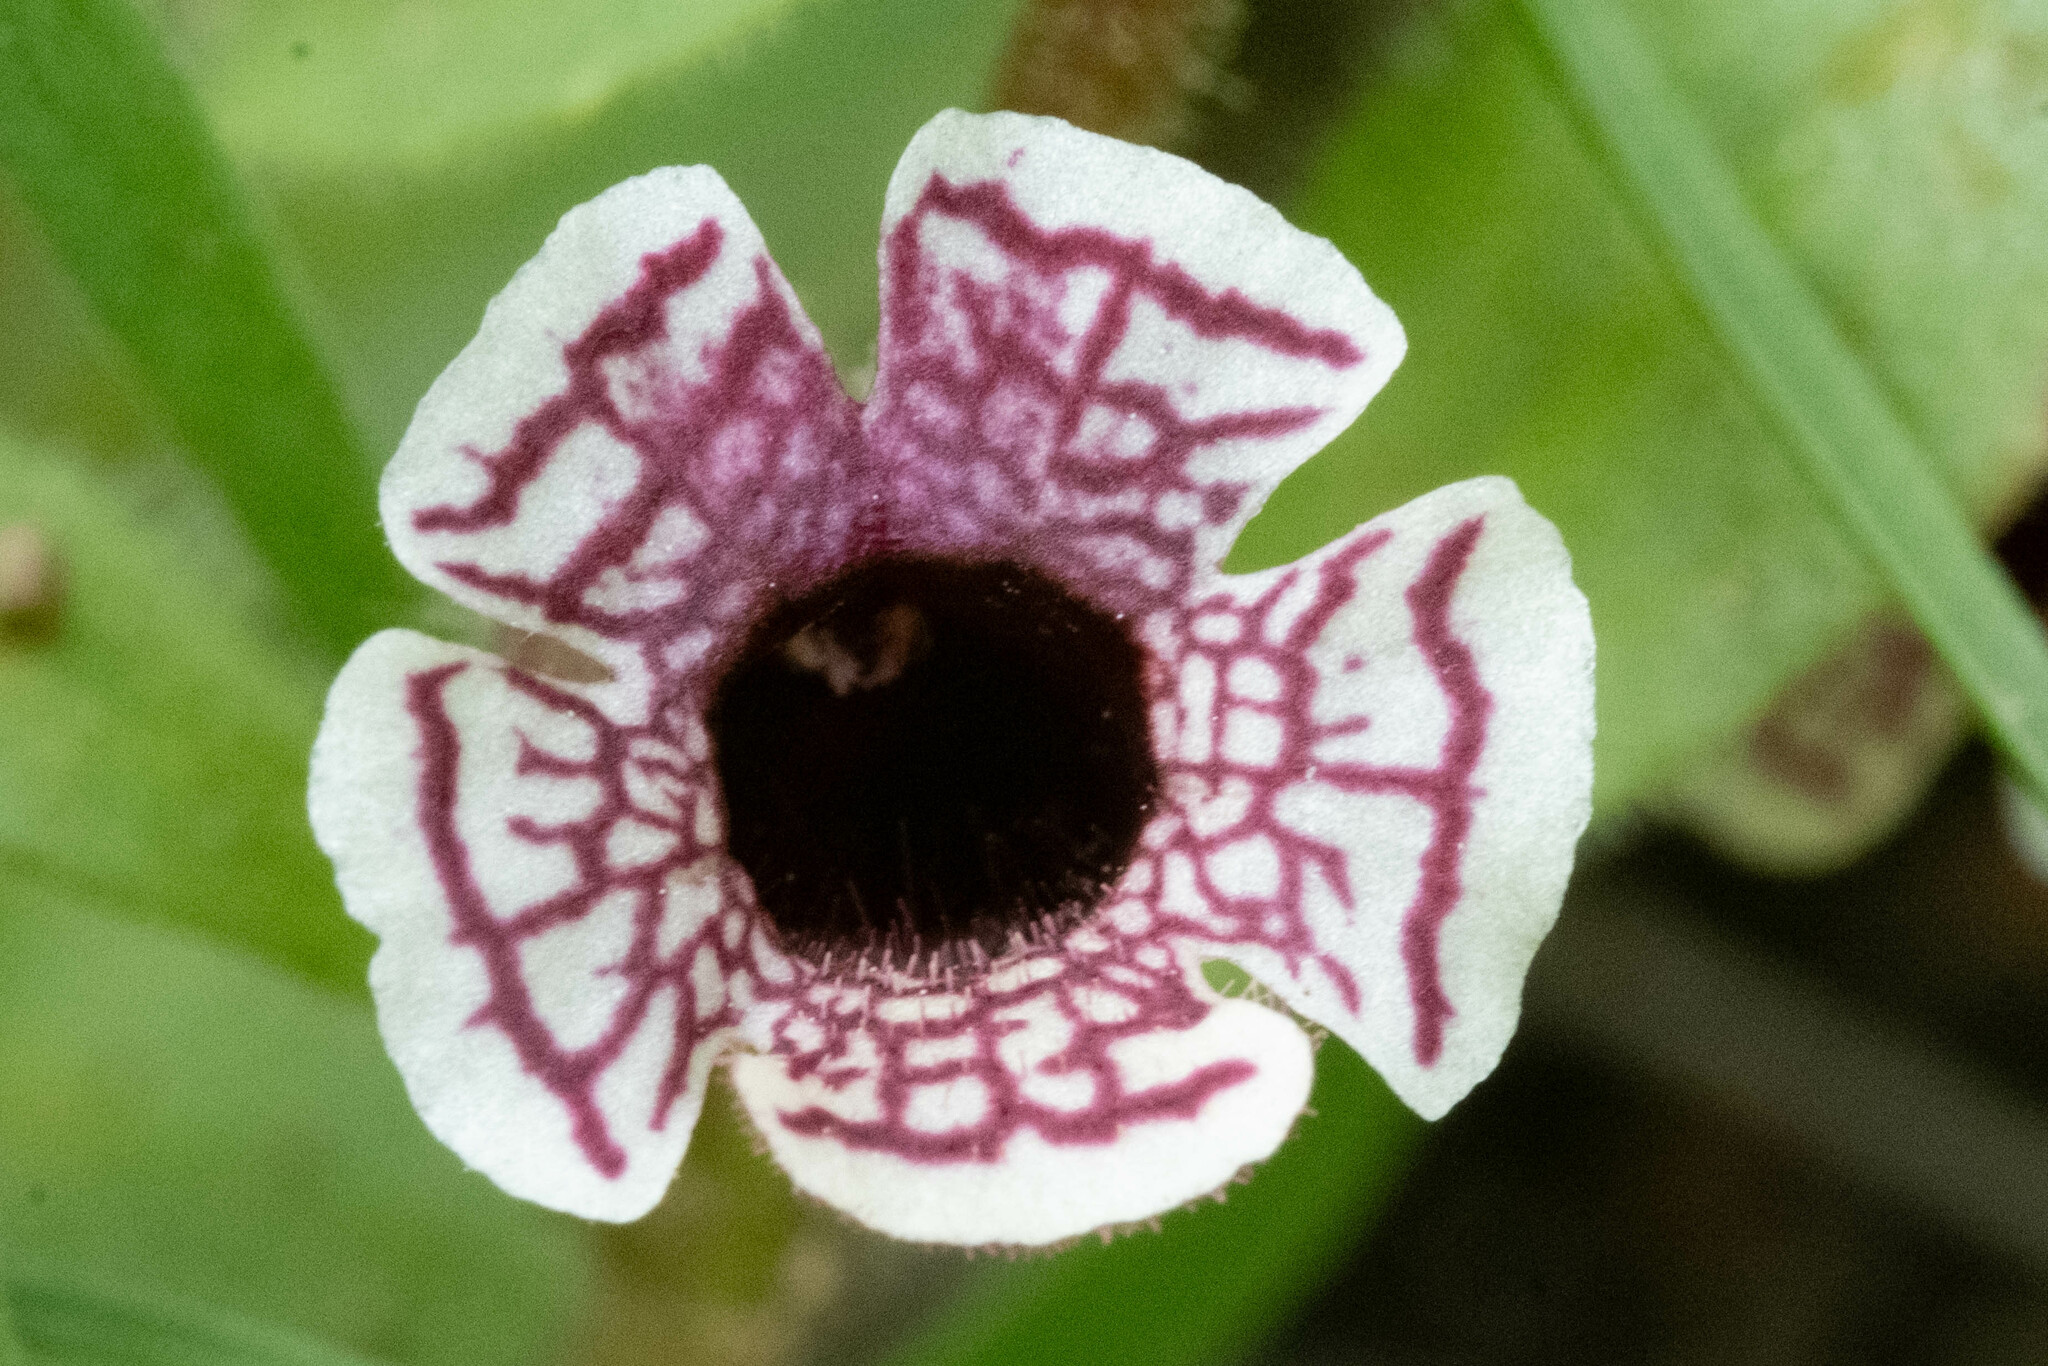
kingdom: Plantae
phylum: Tracheophyta
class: Magnoliopsida
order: Lamiales
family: Phrymaceae
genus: Diplacus
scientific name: Diplacus pictus
